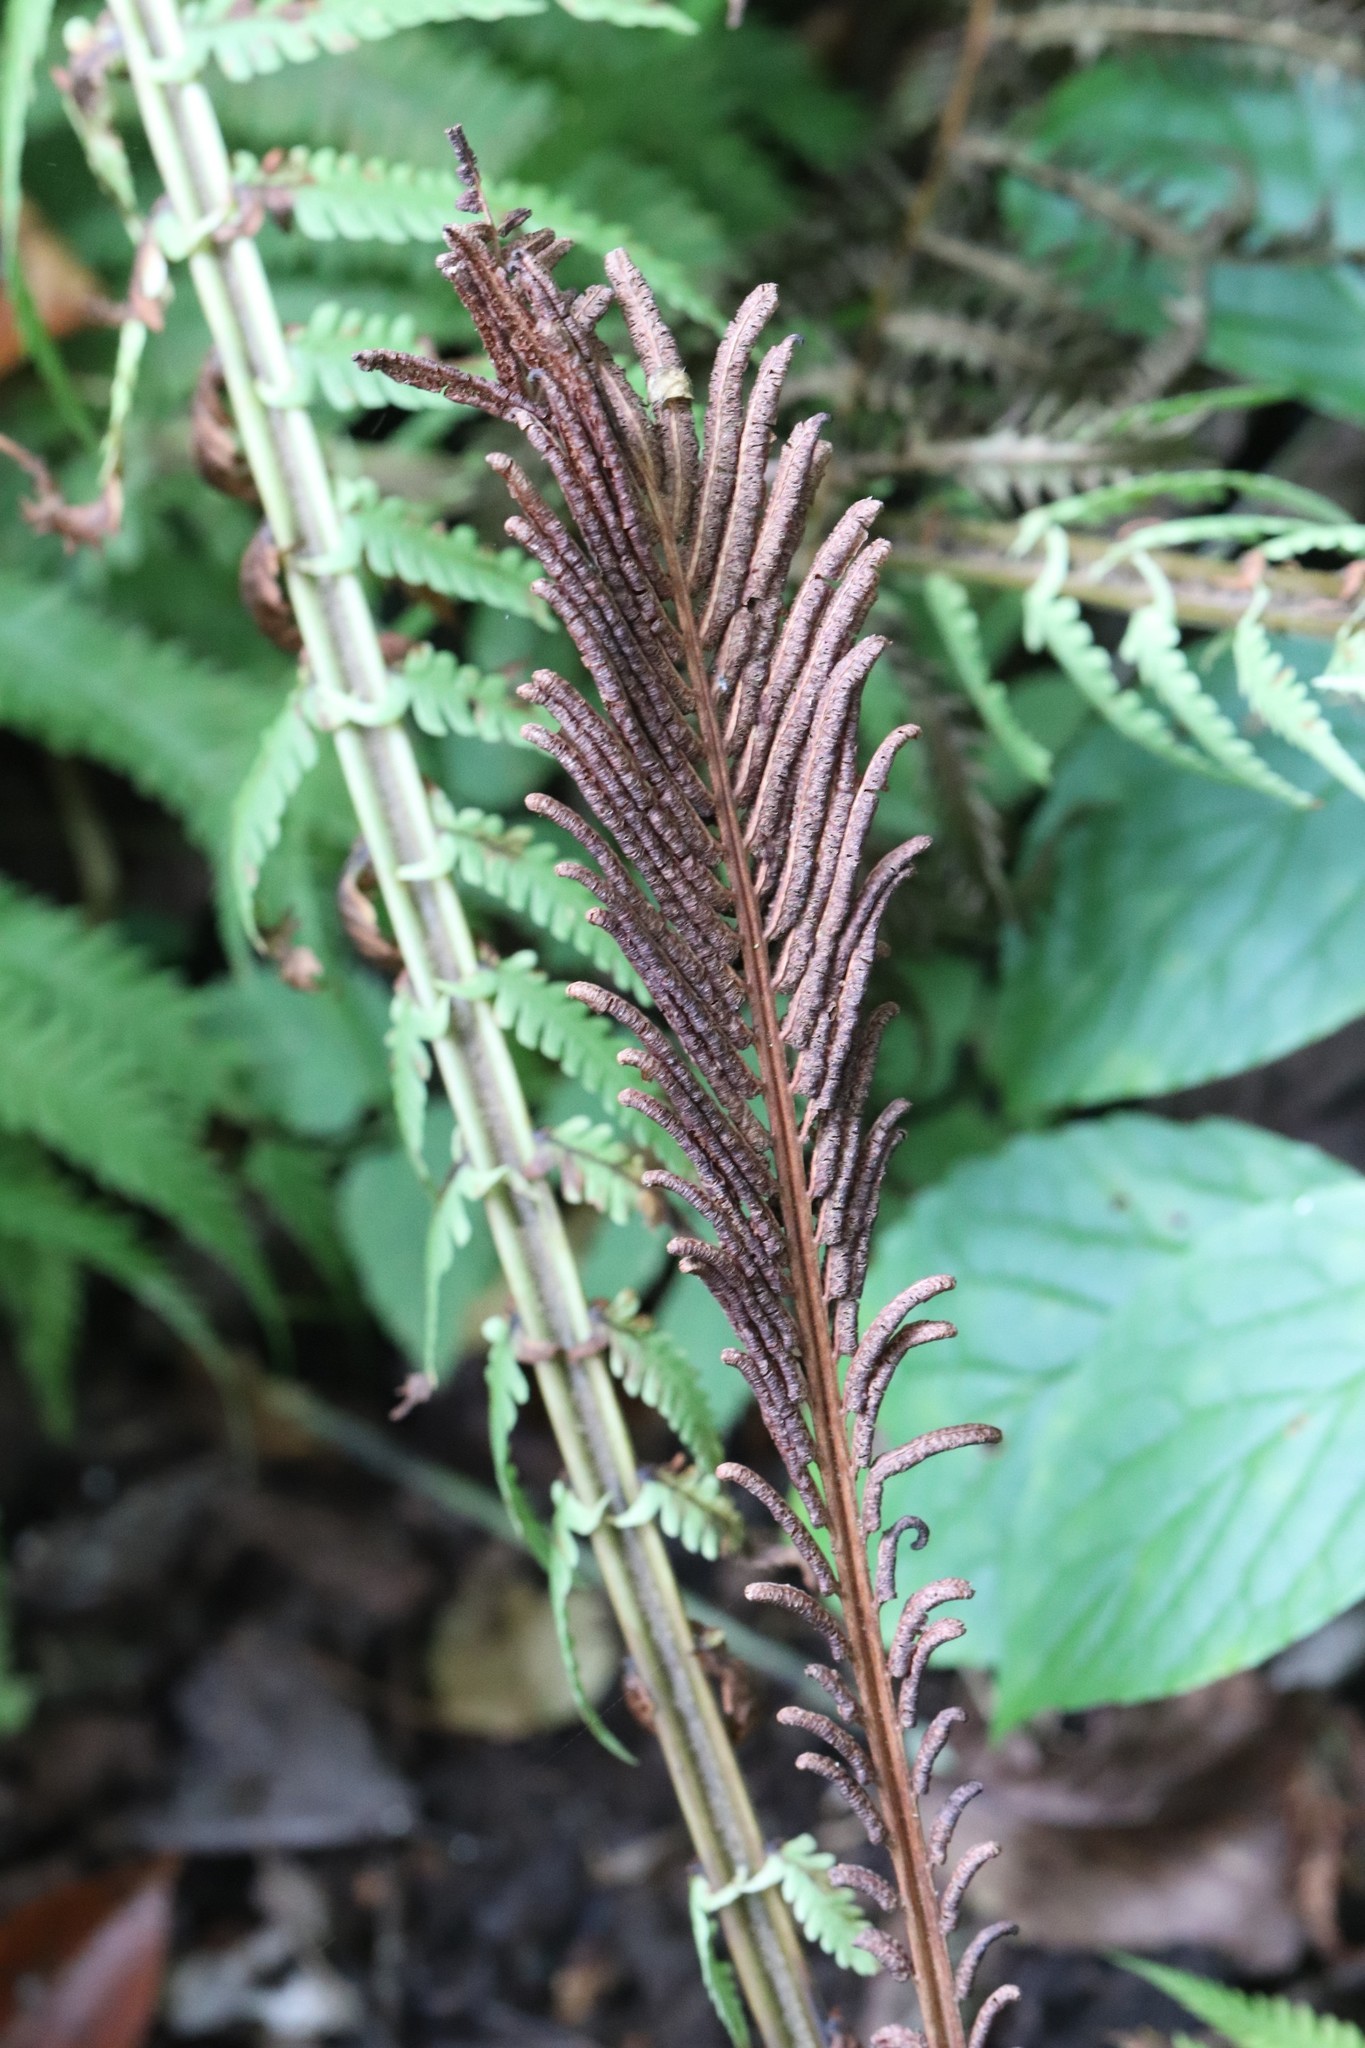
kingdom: Plantae
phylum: Tracheophyta
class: Polypodiopsida
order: Polypodiales
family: Onocleaceae
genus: Matteuccia
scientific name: Matteuccia struthiopteris
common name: Ostrich fern
